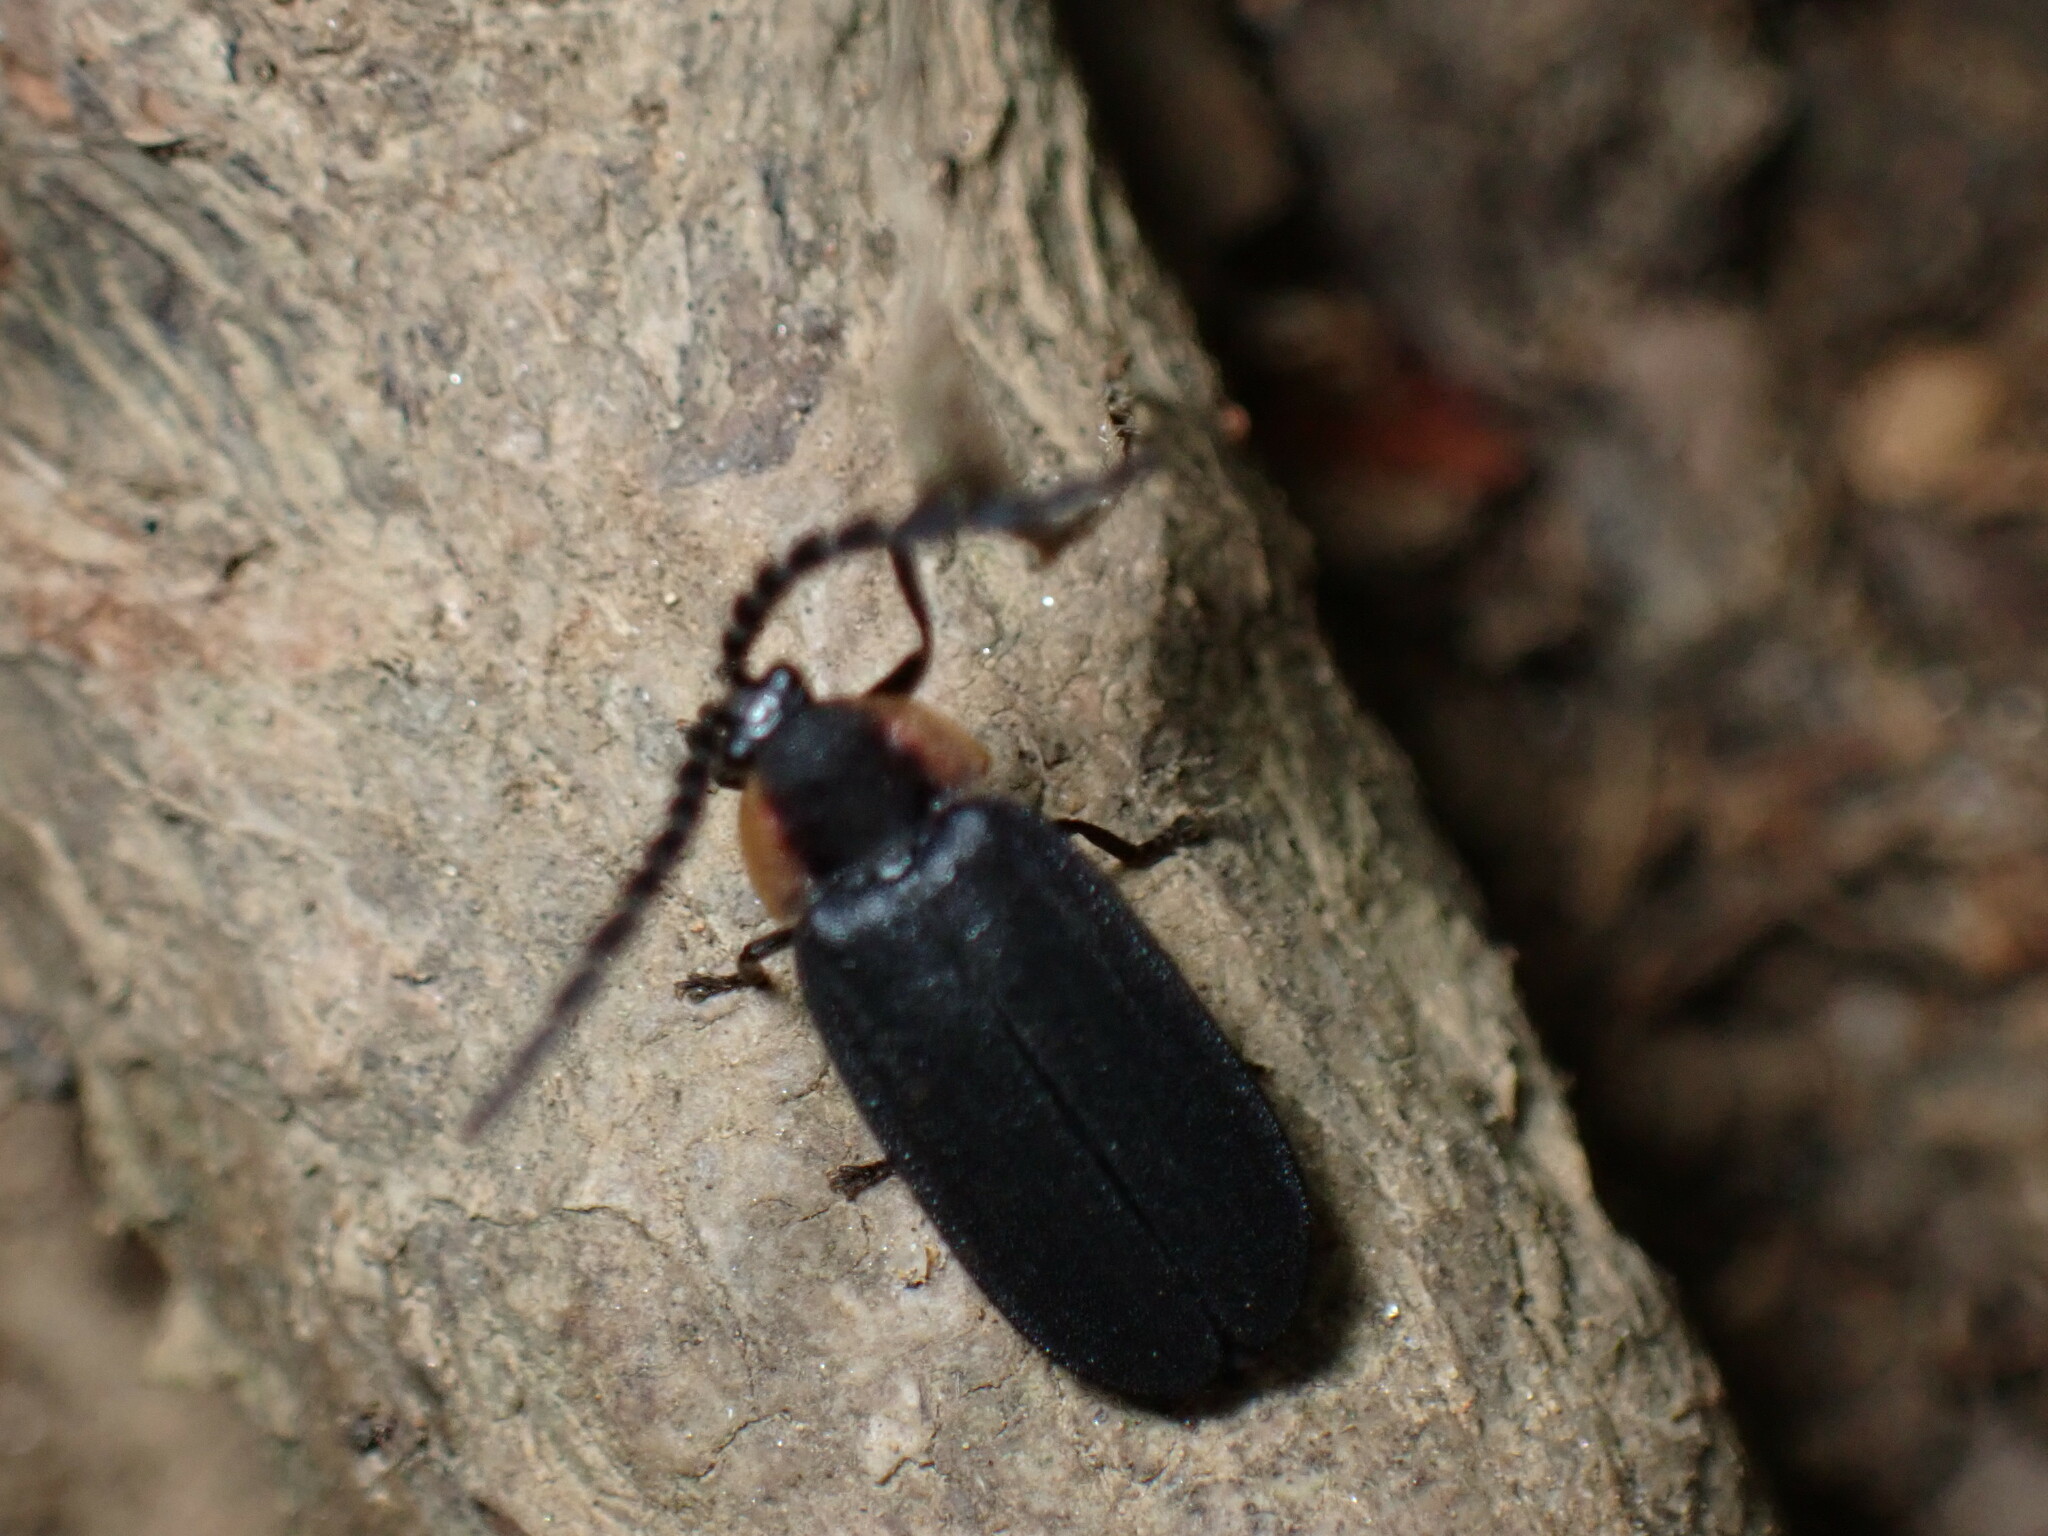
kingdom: Animalia
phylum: Arthropoda
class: Insecta
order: Coleoptera
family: Lampyridae
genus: Lucidota
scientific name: Lucidota atra
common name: Black firefly
